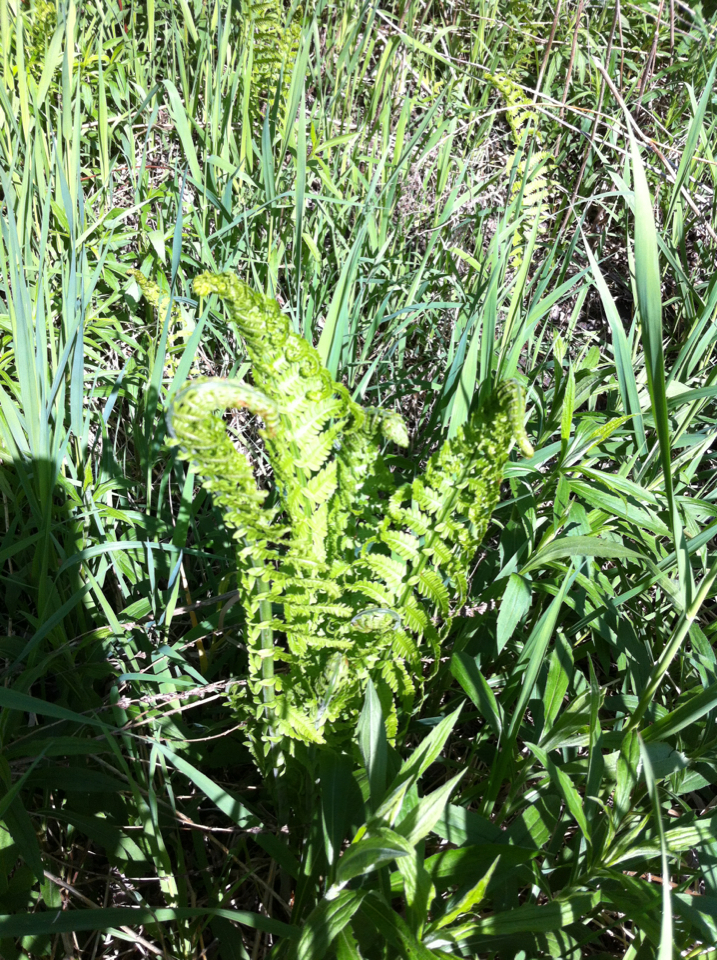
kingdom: Plantae
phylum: Tracheophyta
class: Polypodiopsida
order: Polypodiales
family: Onocleaceae
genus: Matteuccia
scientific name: Matteuccia struthiopteris
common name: Ostrich fern
